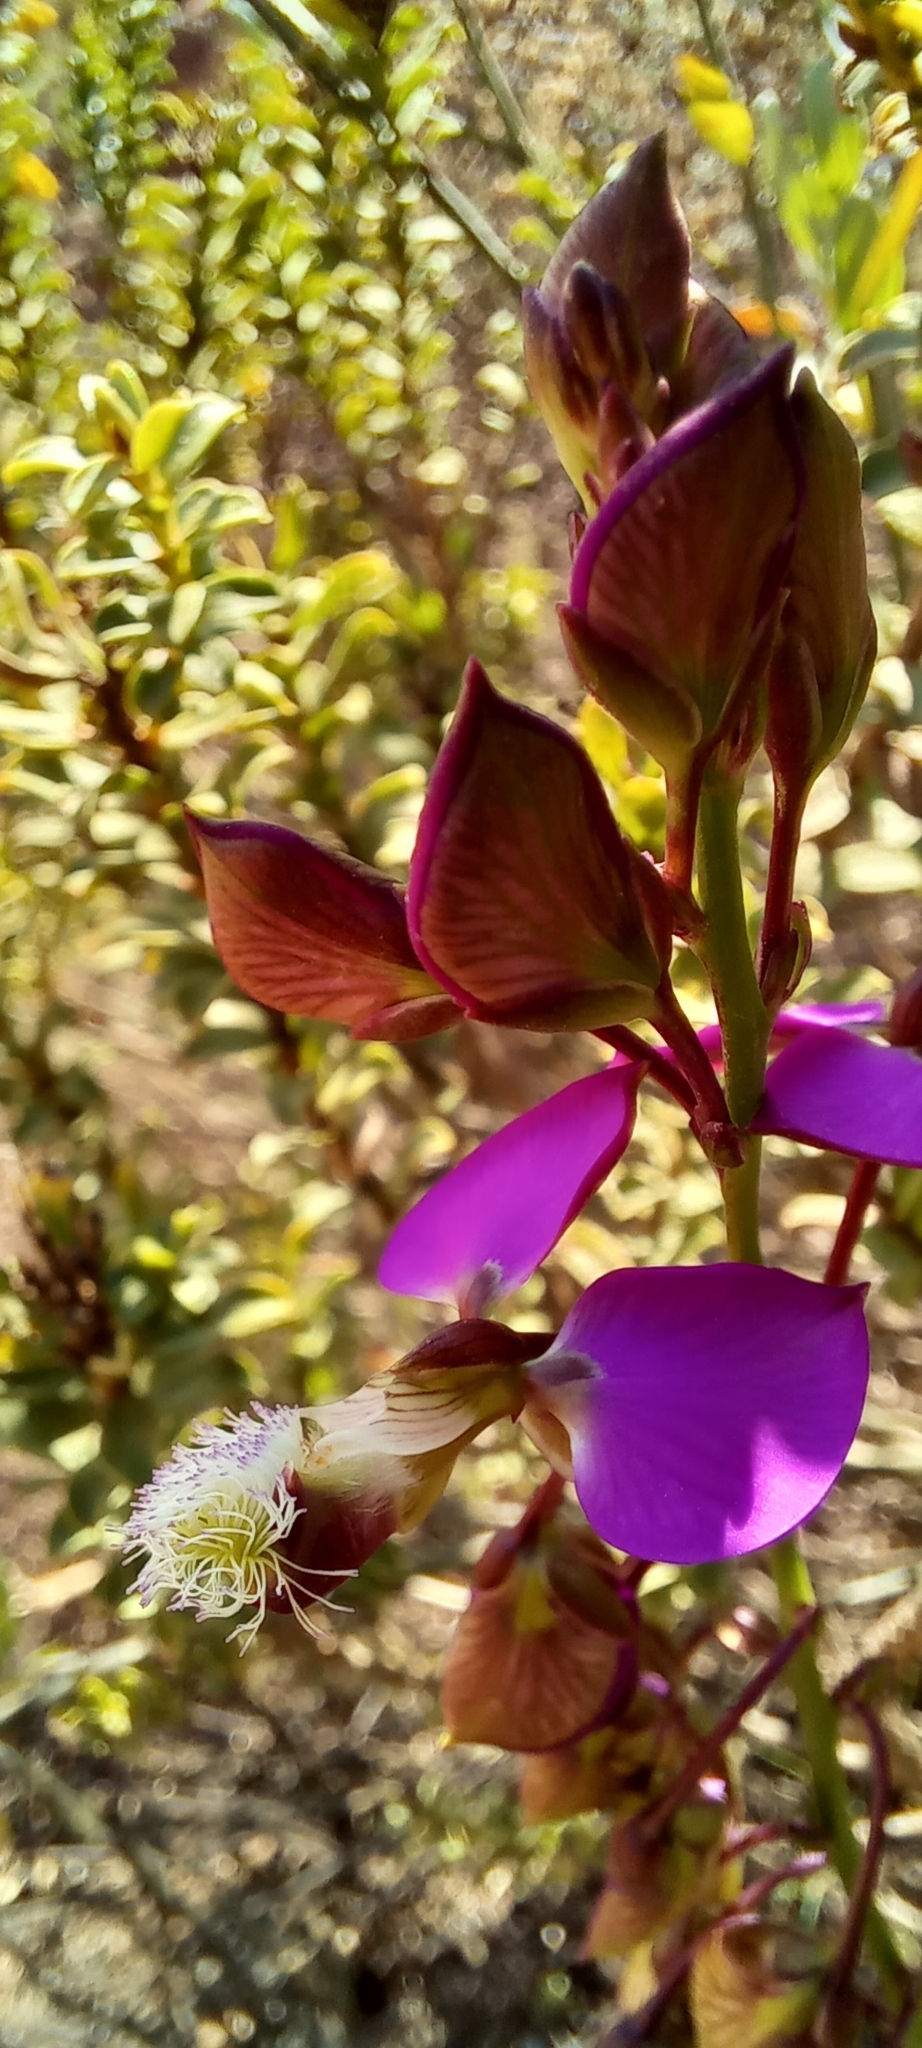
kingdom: Plantae
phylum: Tracheophyta
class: Magnoliopsida
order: Fabales
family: Polygalaceae
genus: Polygala
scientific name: Polygala bracteolata
